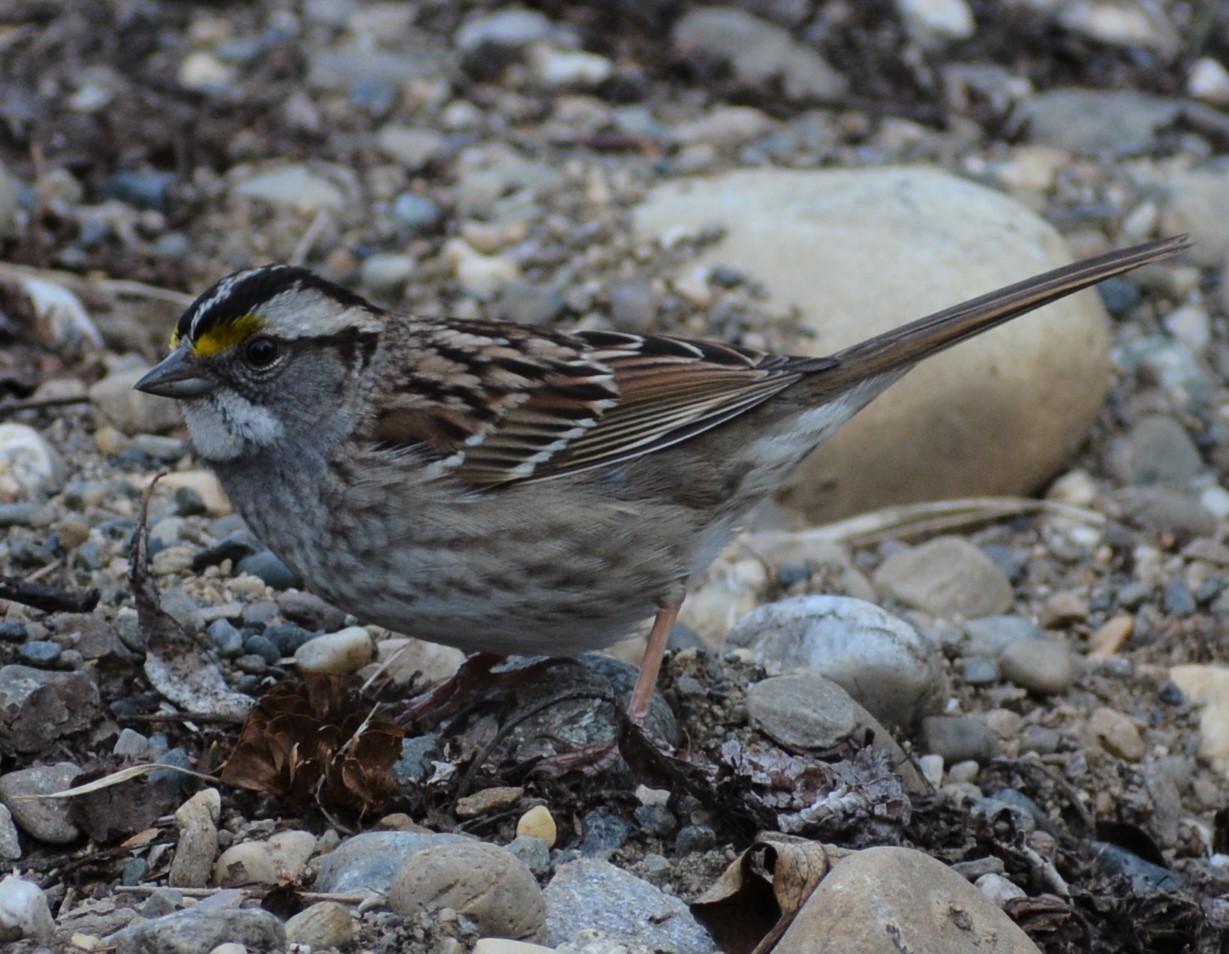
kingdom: Animalia
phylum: Chordata
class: Aves
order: Passeriformes
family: Passerellidae
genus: Zonotrichia
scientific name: Zonotrichia albicollis
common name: White-throated sparrow
